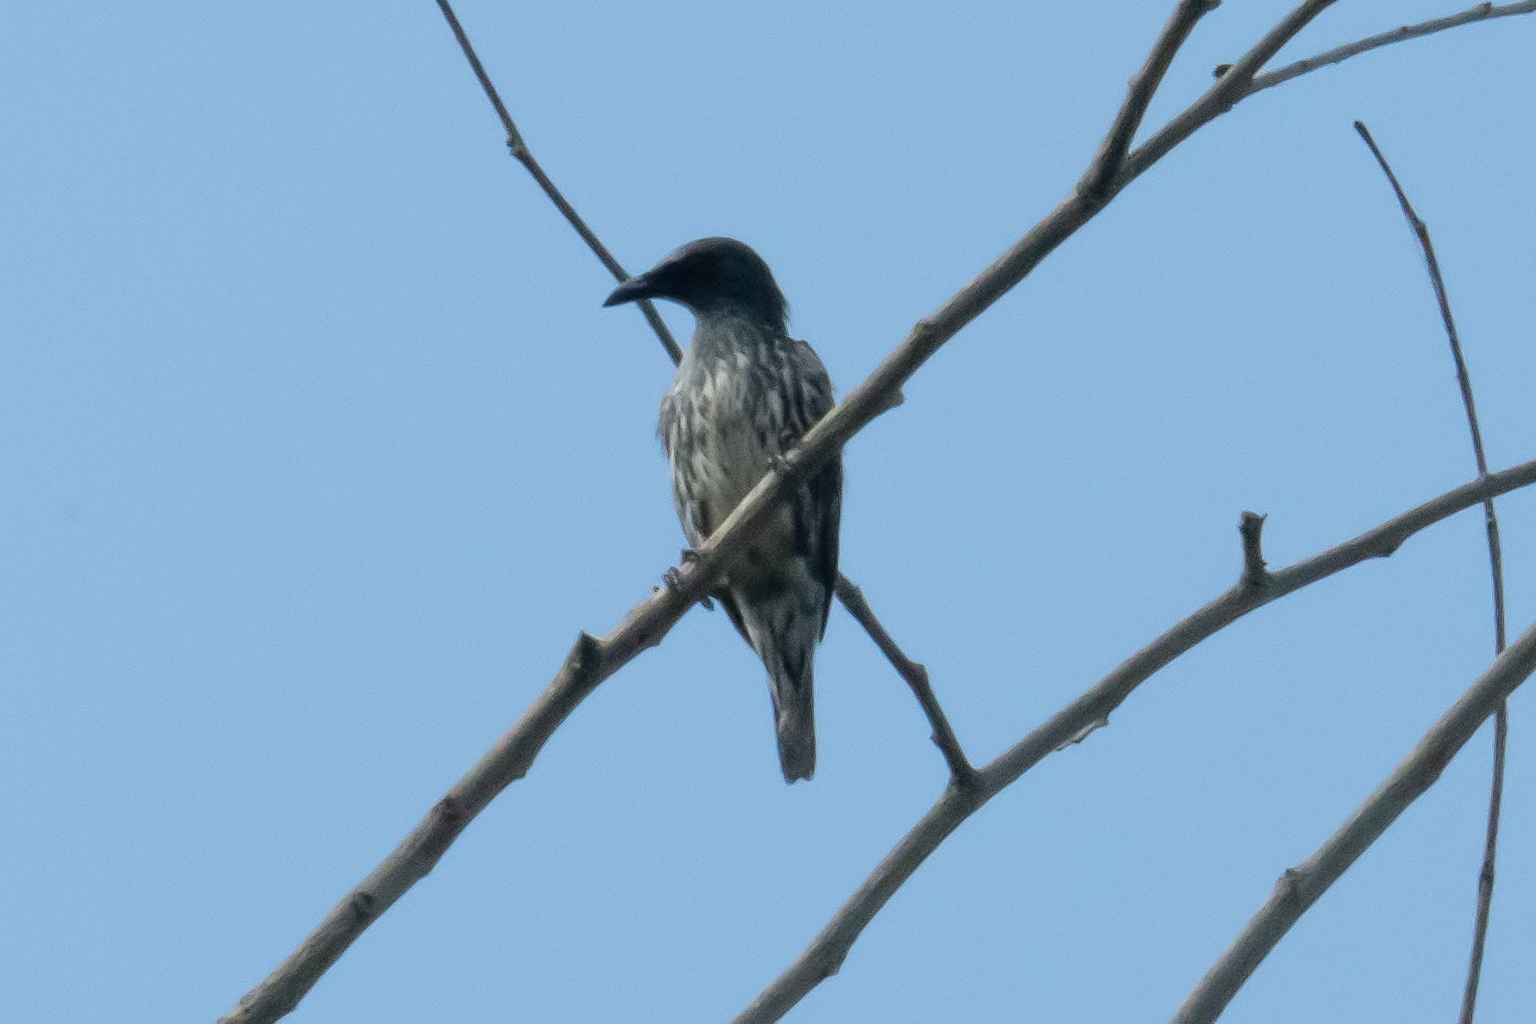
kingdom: Animalia
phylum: Chordata
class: Aves
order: Passeriformes
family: Sturnidae
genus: Aplonis
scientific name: Aplonis panayensis
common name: Asian glossy starling
